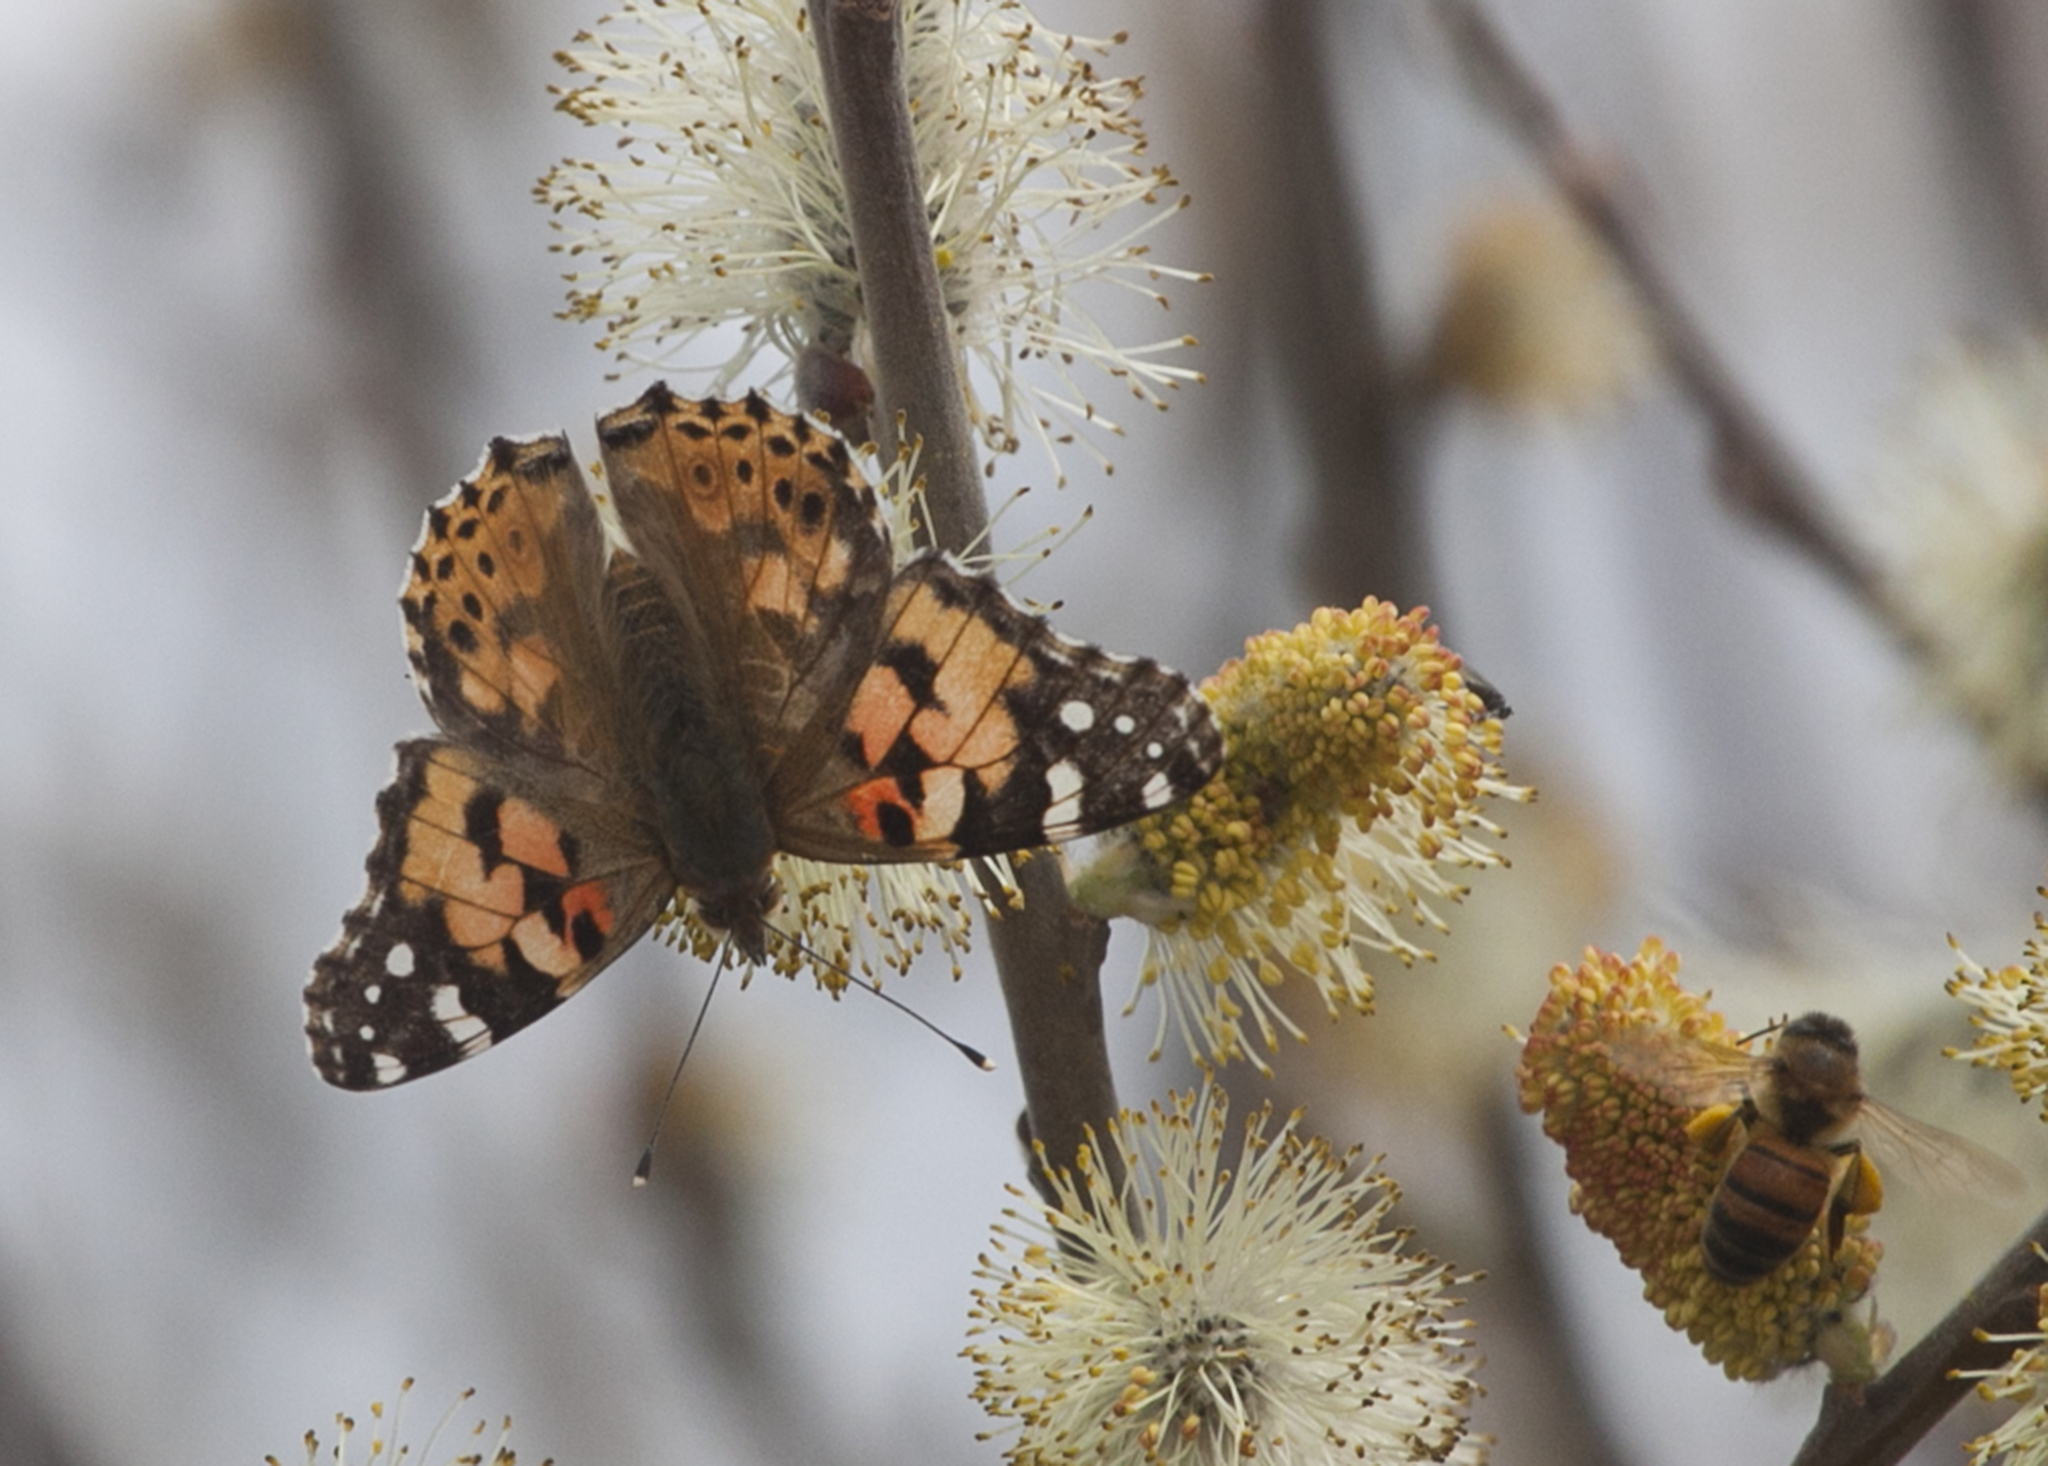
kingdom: Animalia
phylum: Arthropoda
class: Insecta
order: Lepidoptera
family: Nymphalidae
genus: Vanessa
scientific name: Vanessa cardui
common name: Painted lady
